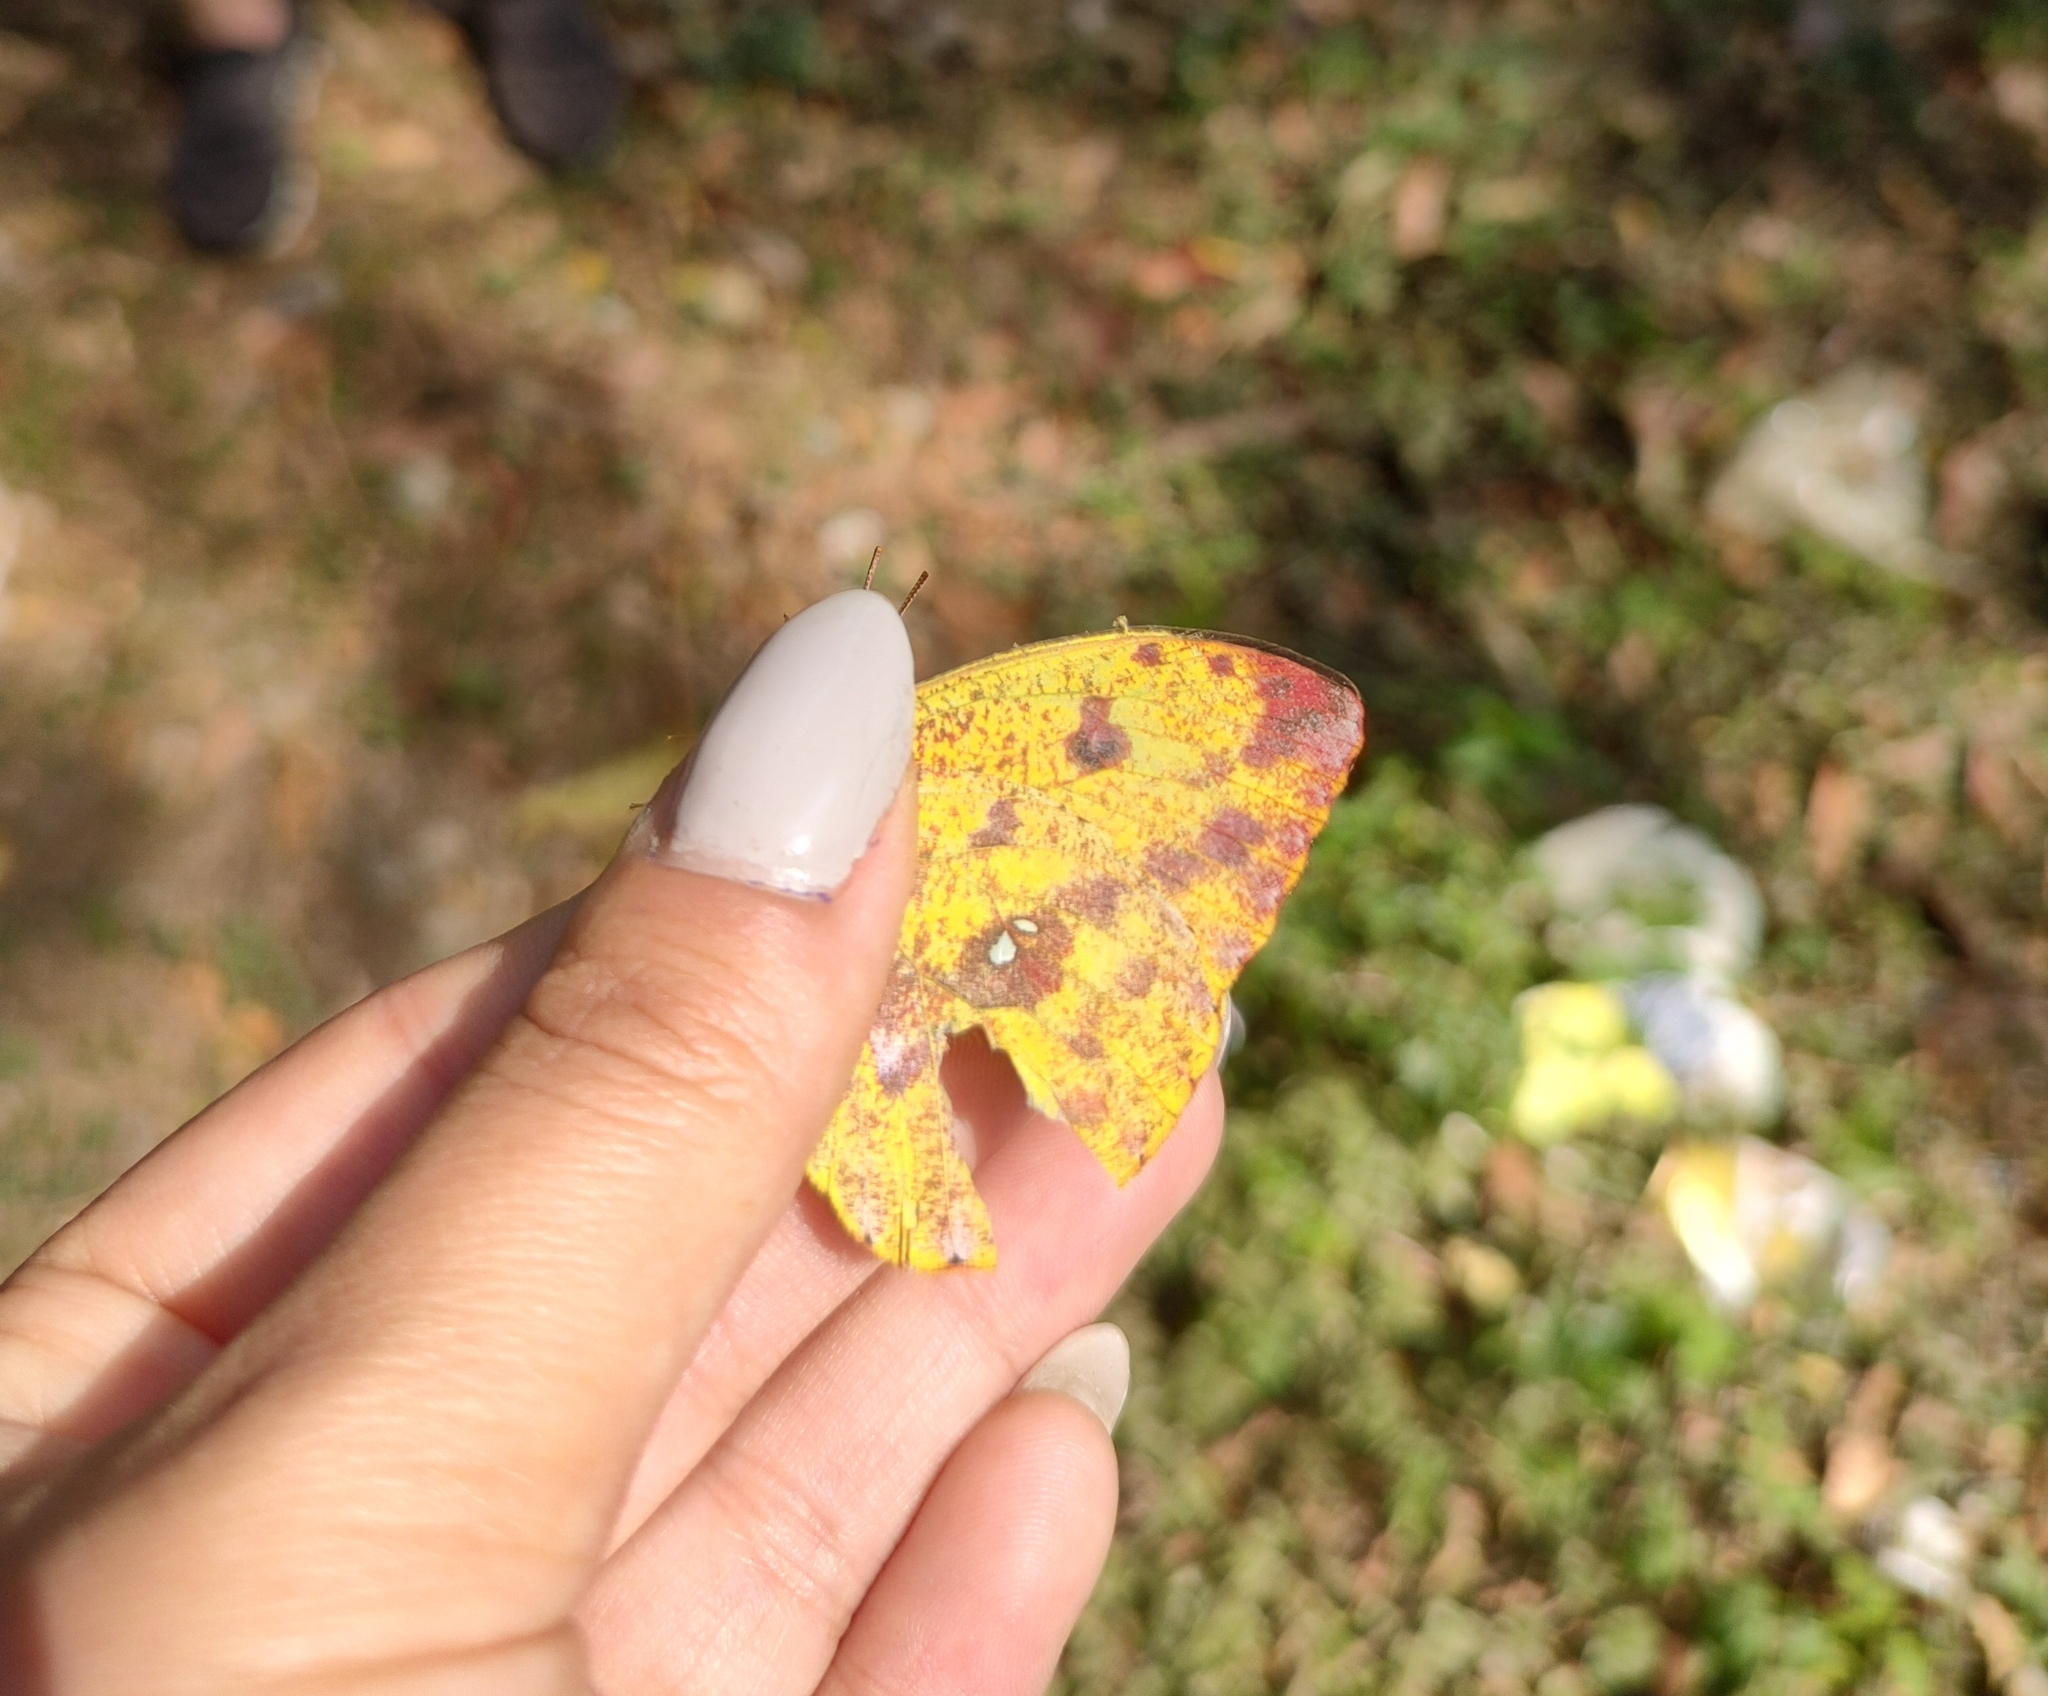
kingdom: Animalia
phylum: Arthropoda
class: Insecta
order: Lepidoptera
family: Pieridae
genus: Phoebis
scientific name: Phoebis argante
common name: Apricot sulphur
